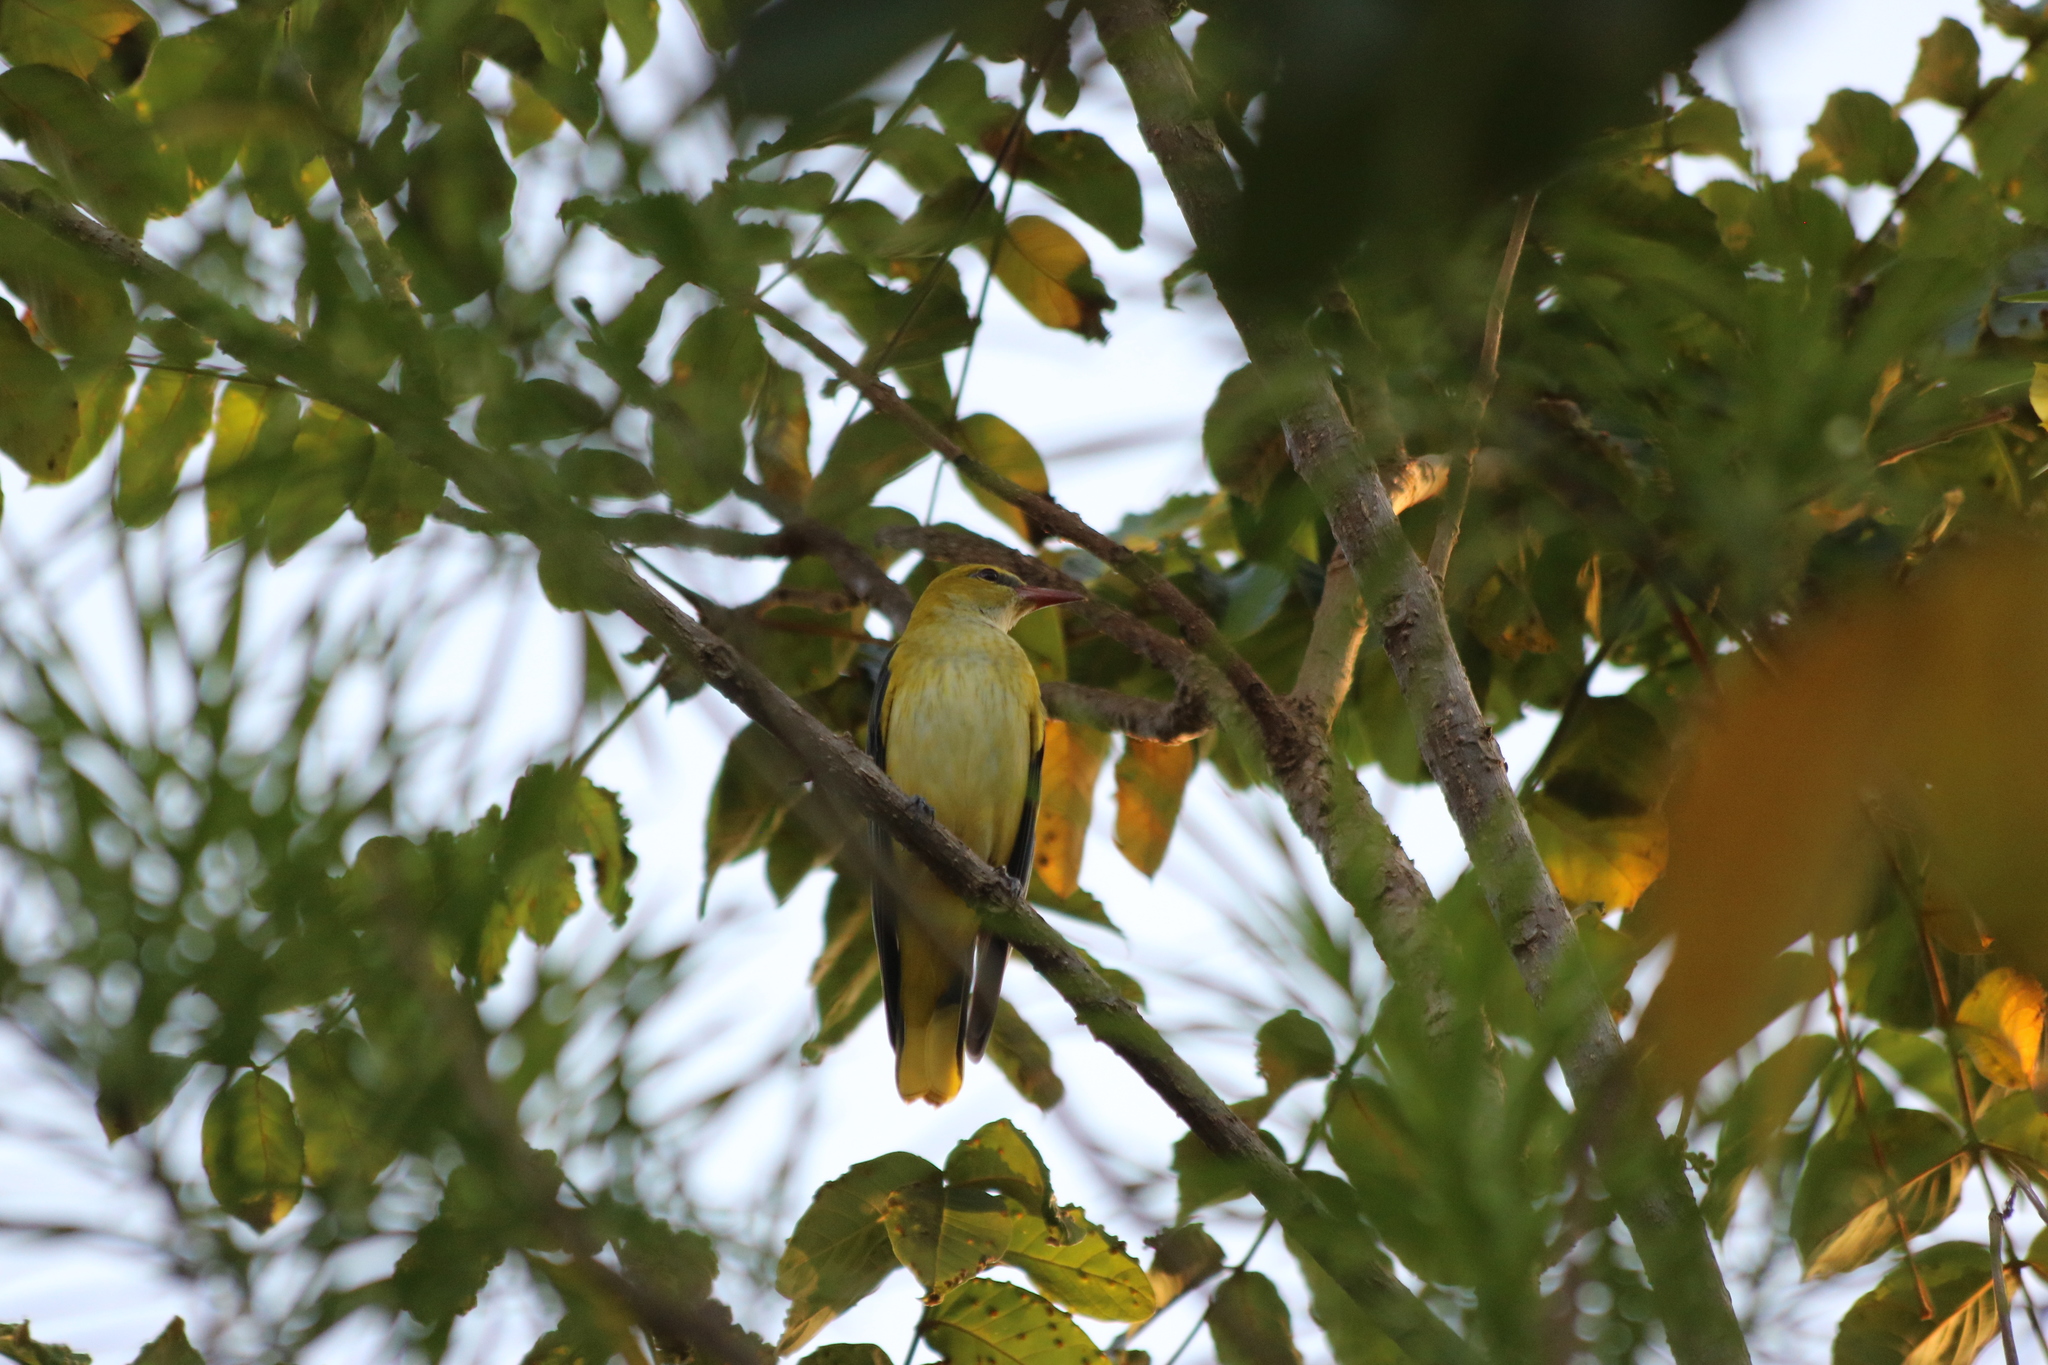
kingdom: Animalia
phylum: Chordata
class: Aves
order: Passeriformes
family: Oriolidae
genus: Oriolus
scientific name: Oriolus oriolus
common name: Eurasian golden oriole
